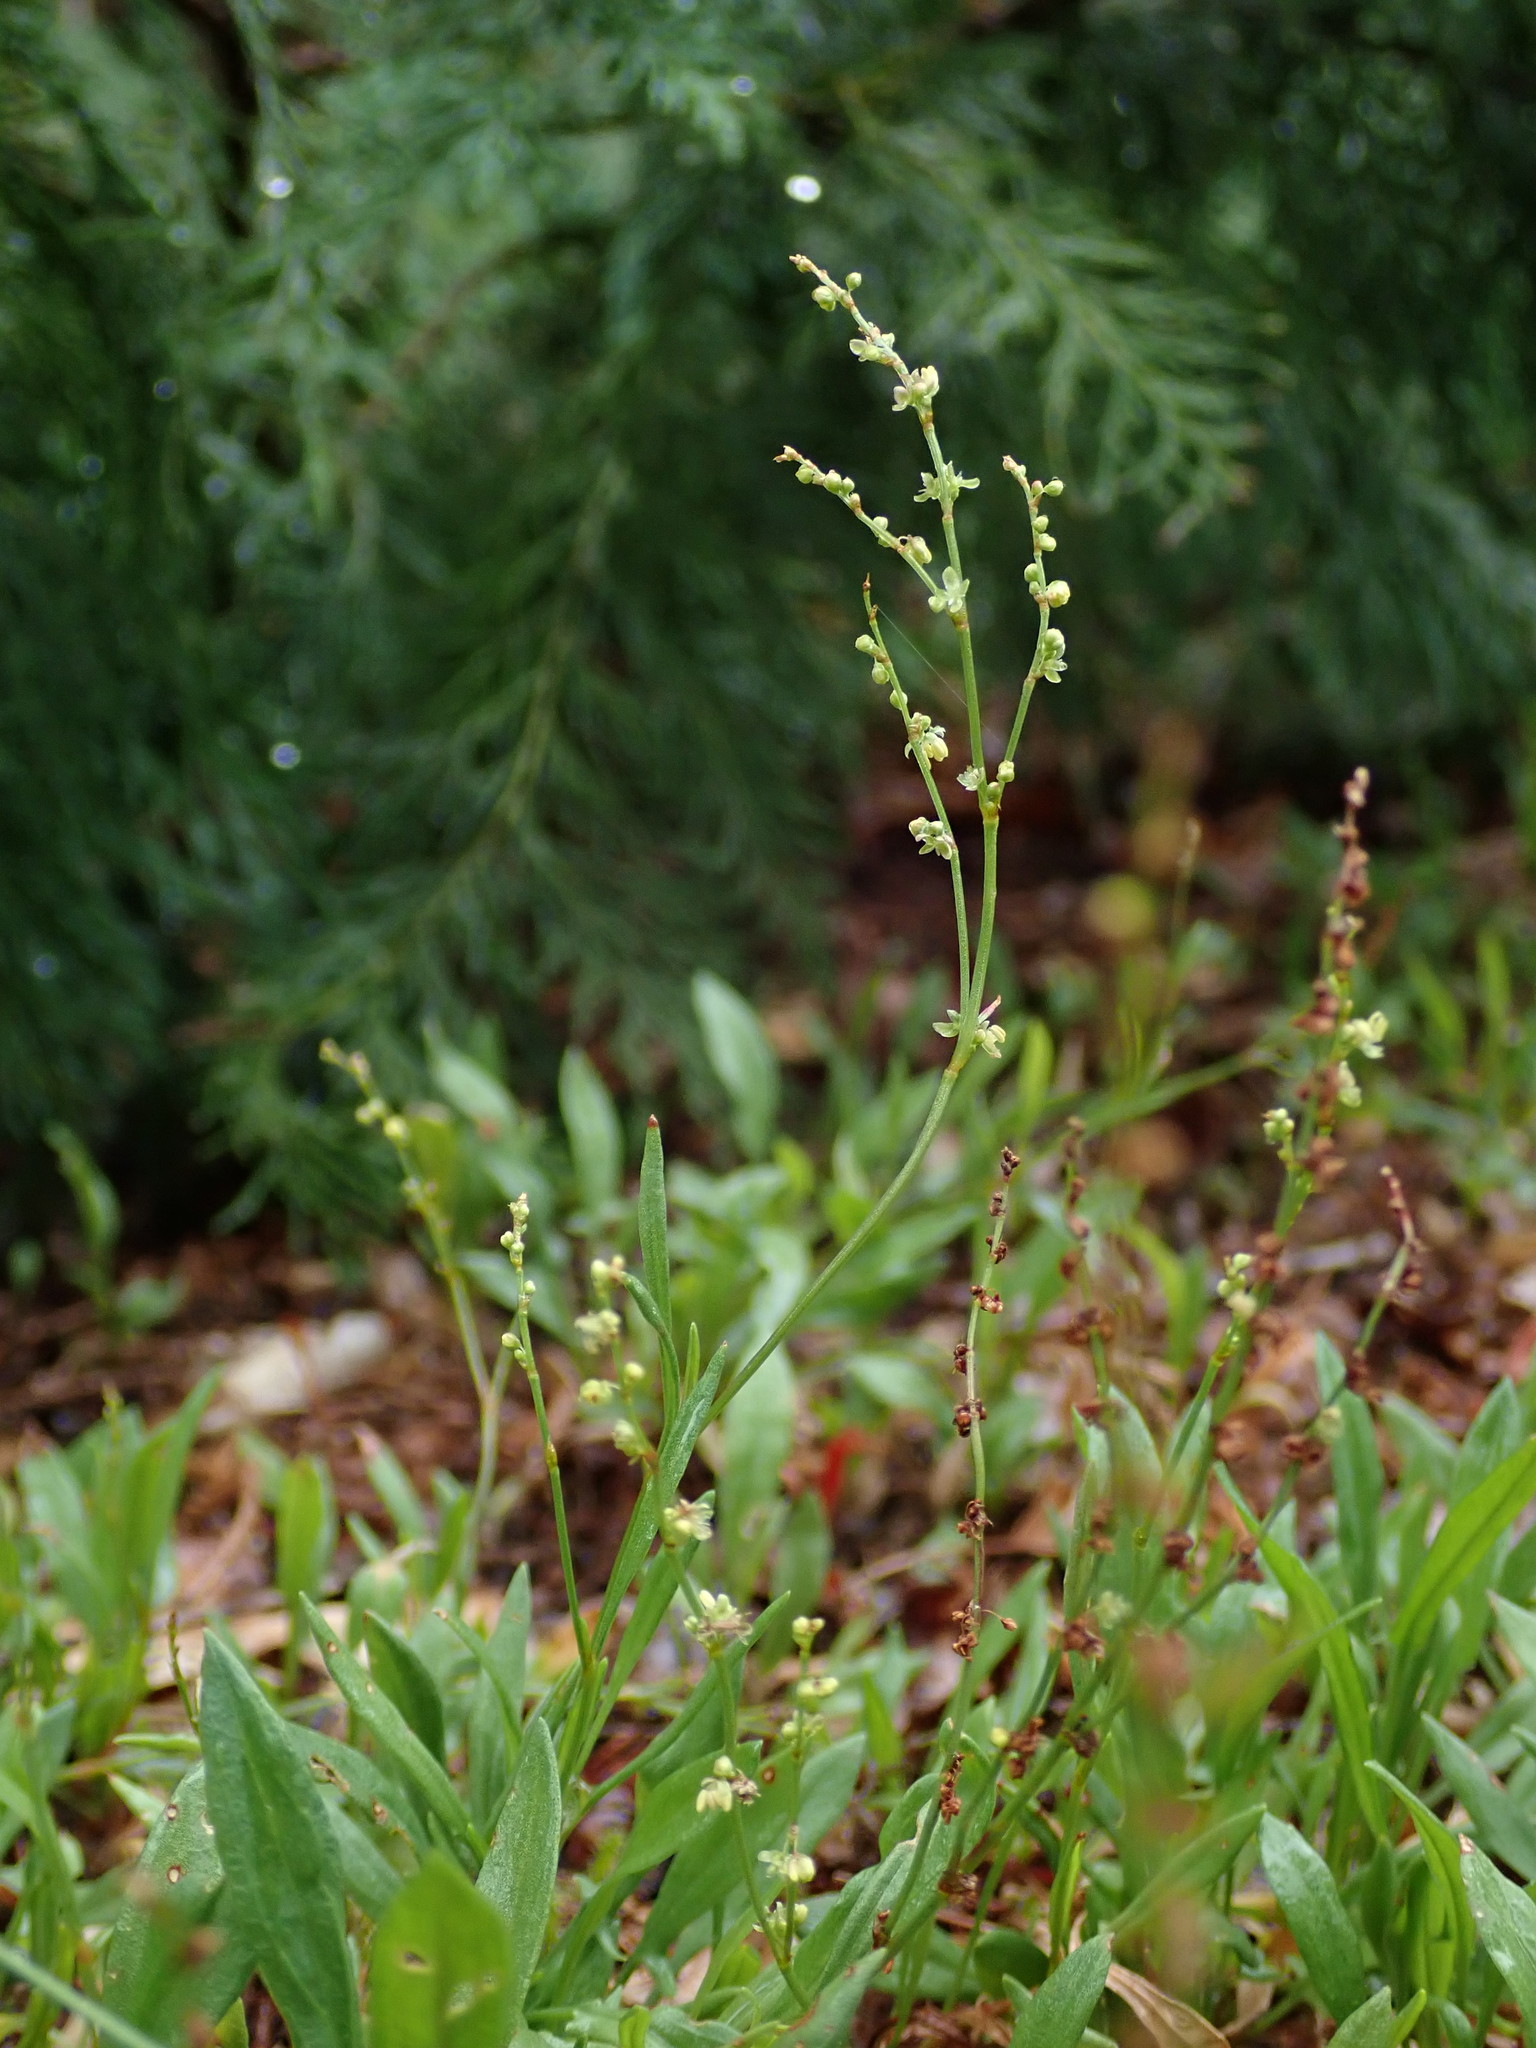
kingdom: Plantae
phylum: Tracheophyta
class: Magnoliopsida
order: Caryophyllales
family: Polygonaceae
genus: Rumex
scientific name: Rumex acetosella
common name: Common sheep sorrel
